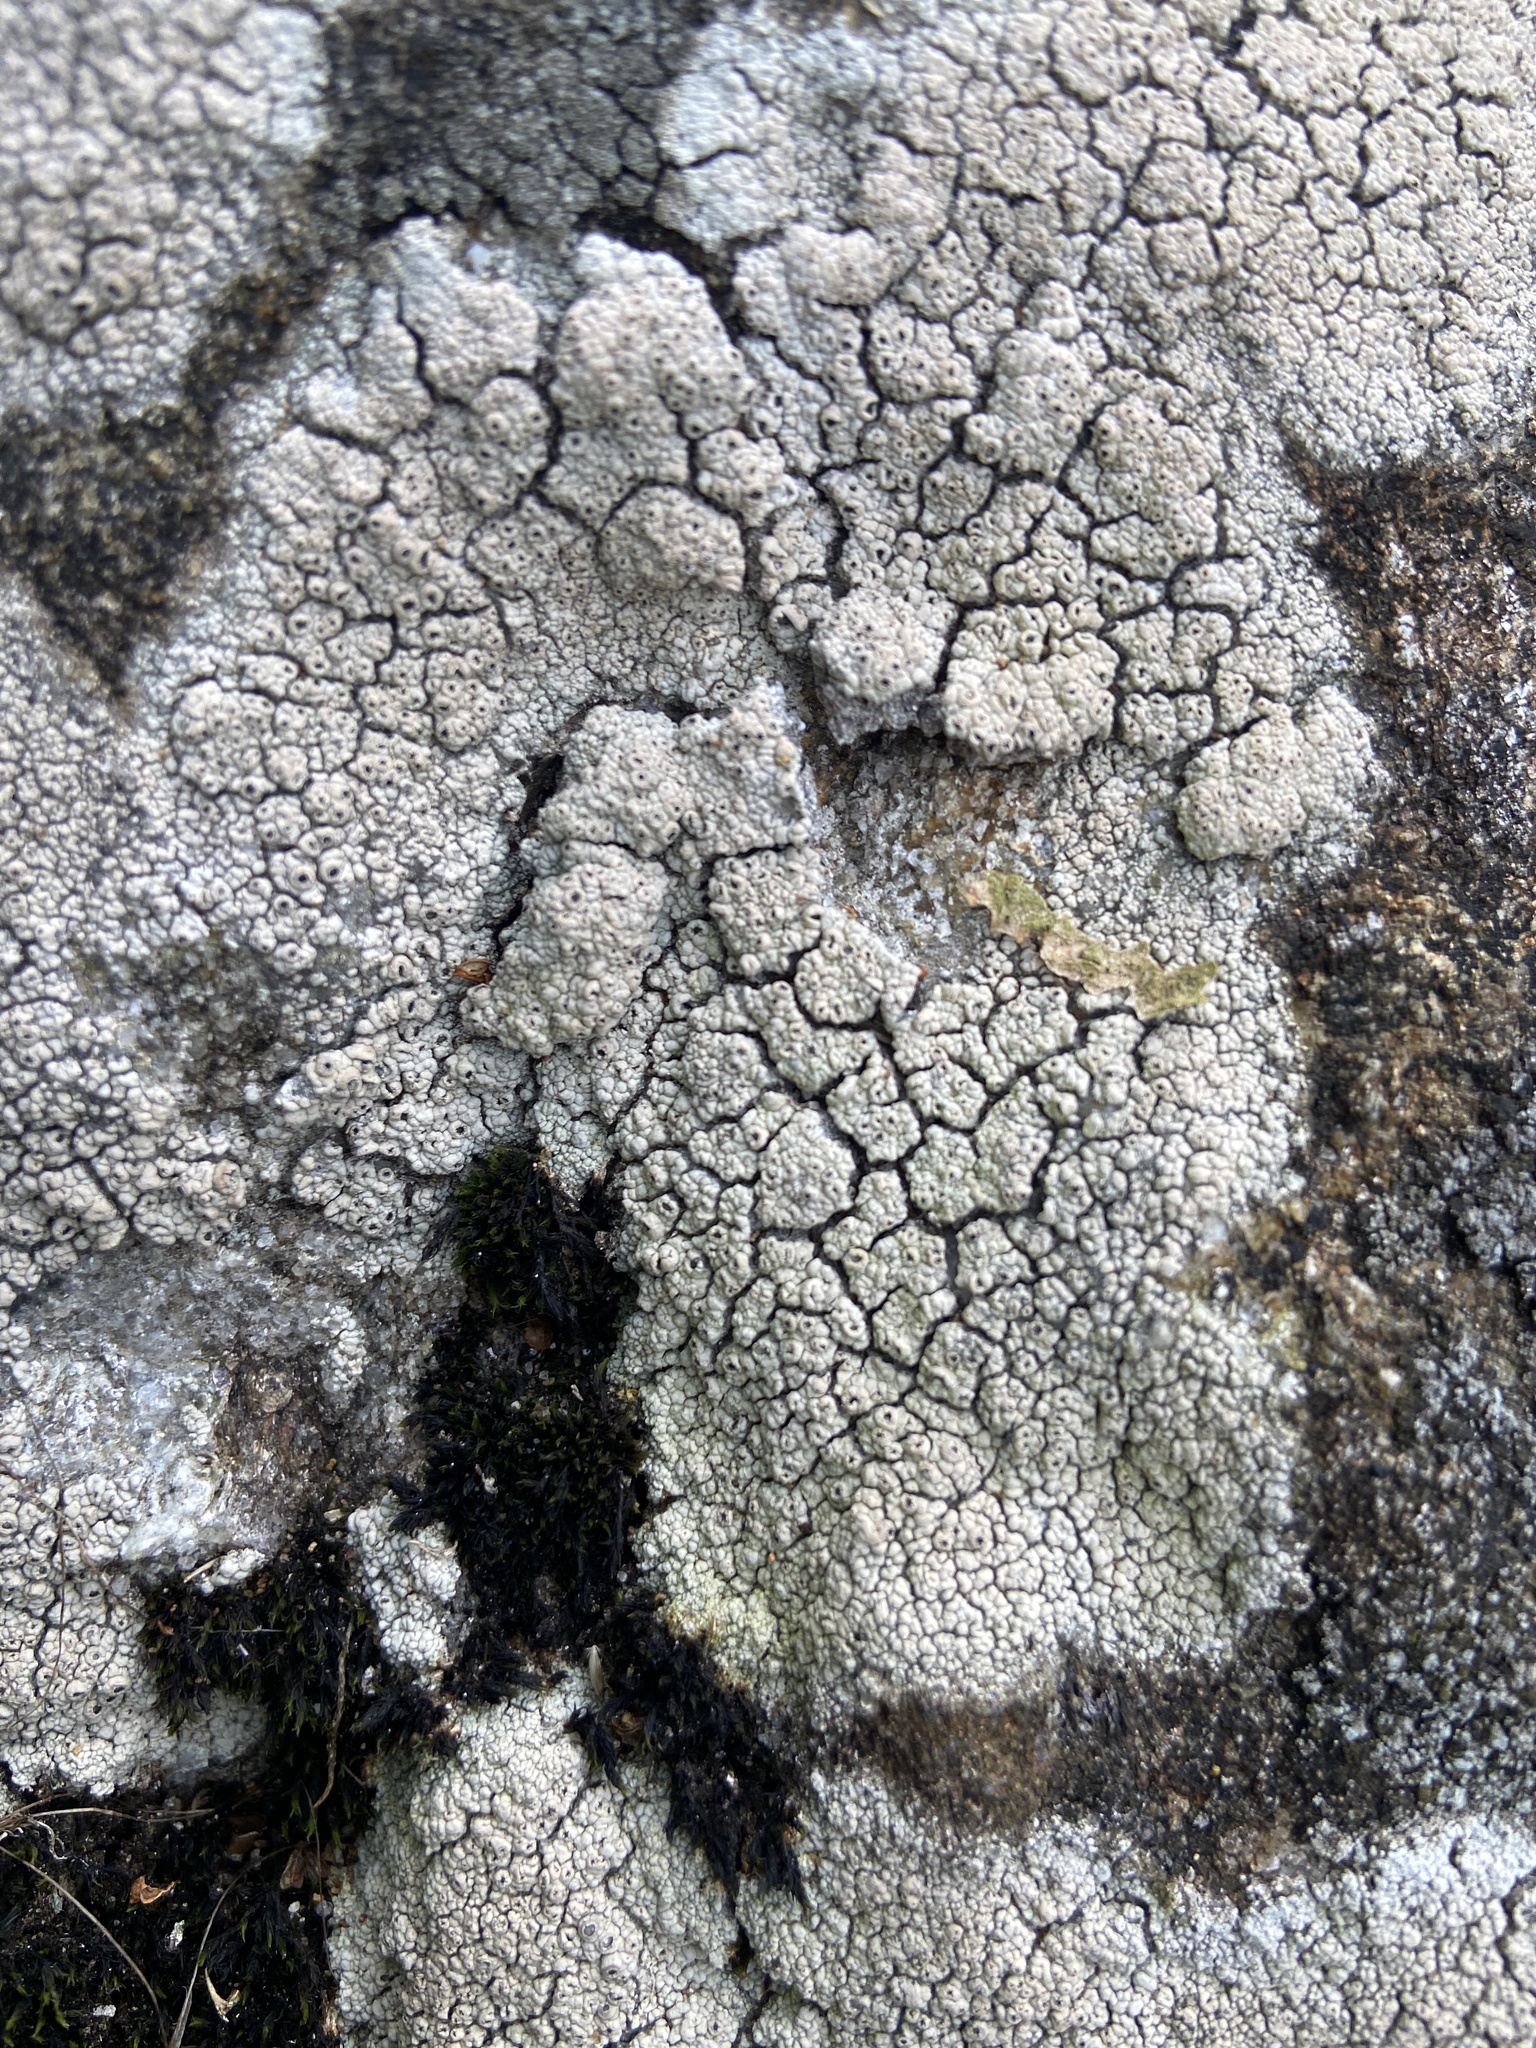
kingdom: Fungi
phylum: Ascomycota
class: Lecanoromycetes
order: Ostropales
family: Graphidaceae
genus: Diploschistes
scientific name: Diploschistes scruposus
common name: Crater lichen
